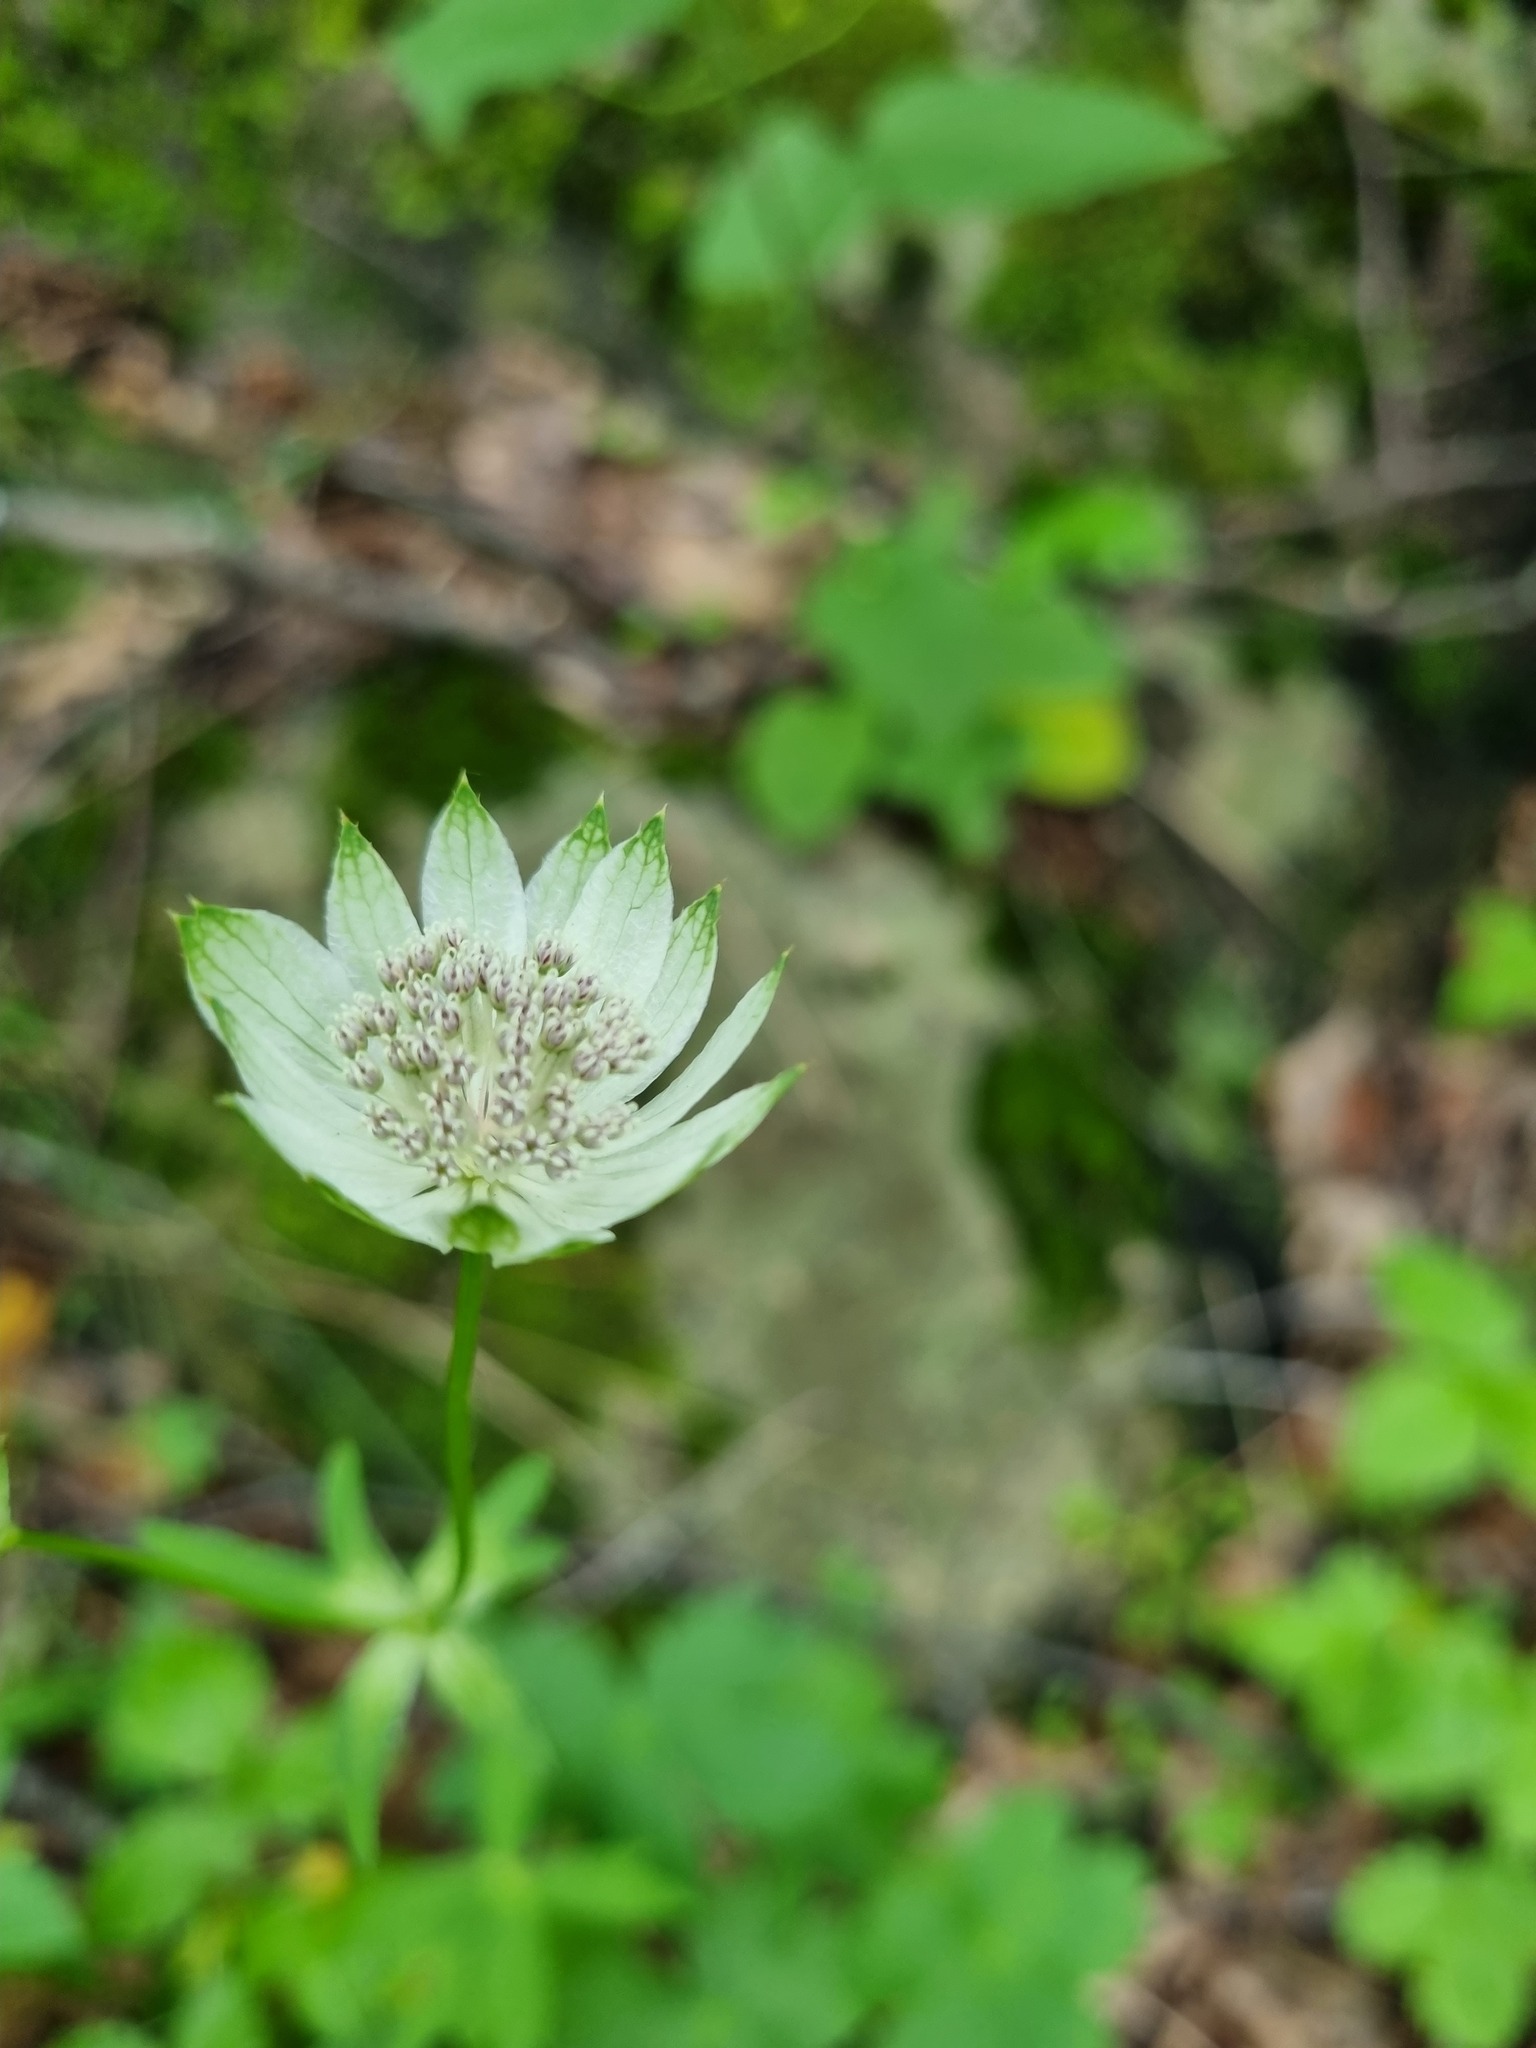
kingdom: Plantae
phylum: Tracheophyta
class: Magnoliopsida
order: Apiales
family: Apiaceae
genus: Astrantia
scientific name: Astrantia trifida
